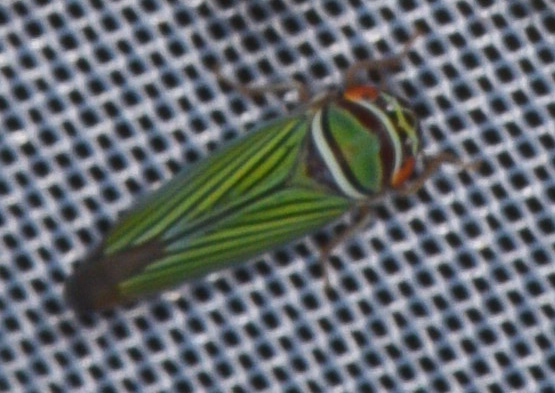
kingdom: Animalia
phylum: Arthropoda
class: Insecta
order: Hemiptera
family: Cicadellidae
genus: Tylozygus
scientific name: Tylozygus fuscolineellus
